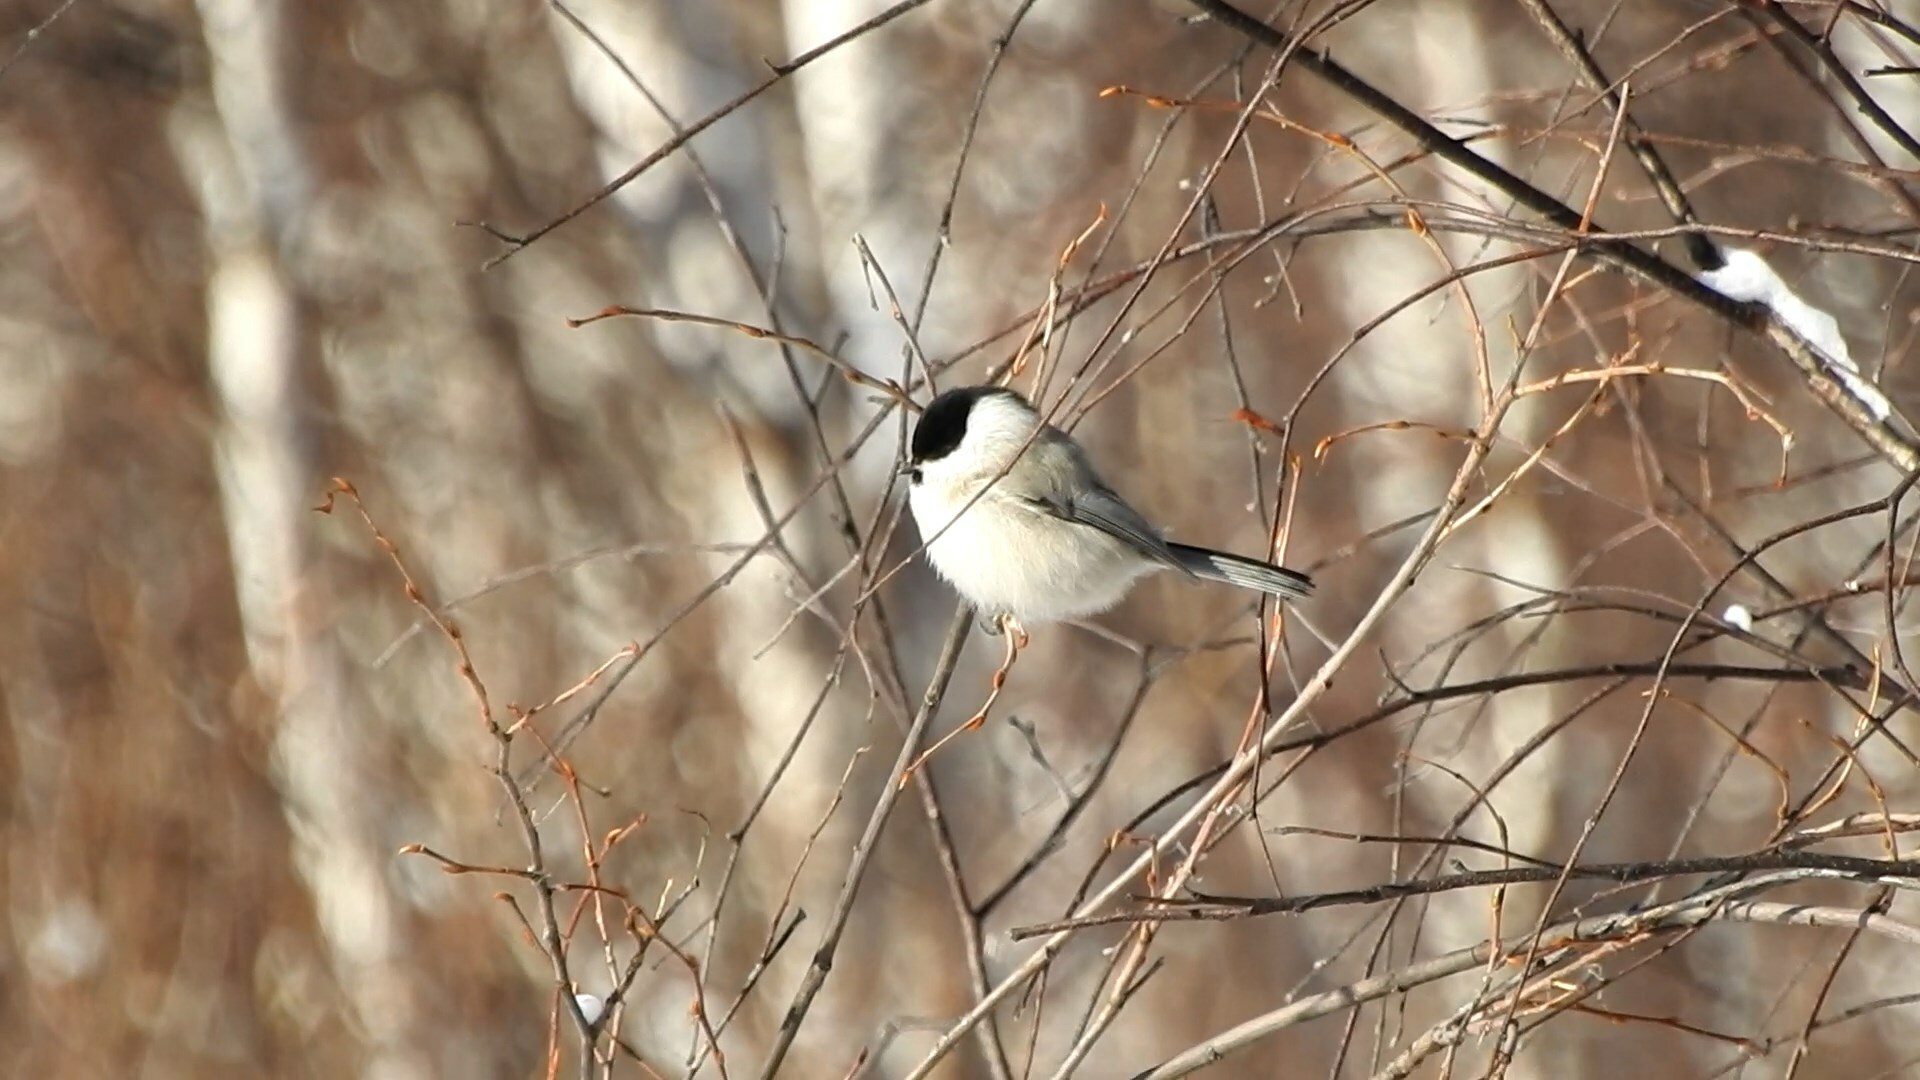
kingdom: Animalia
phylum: Chordata
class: Aves
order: Passeriformes
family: Paridae
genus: Poecile
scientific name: Poecile palustris
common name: Marsh tit
